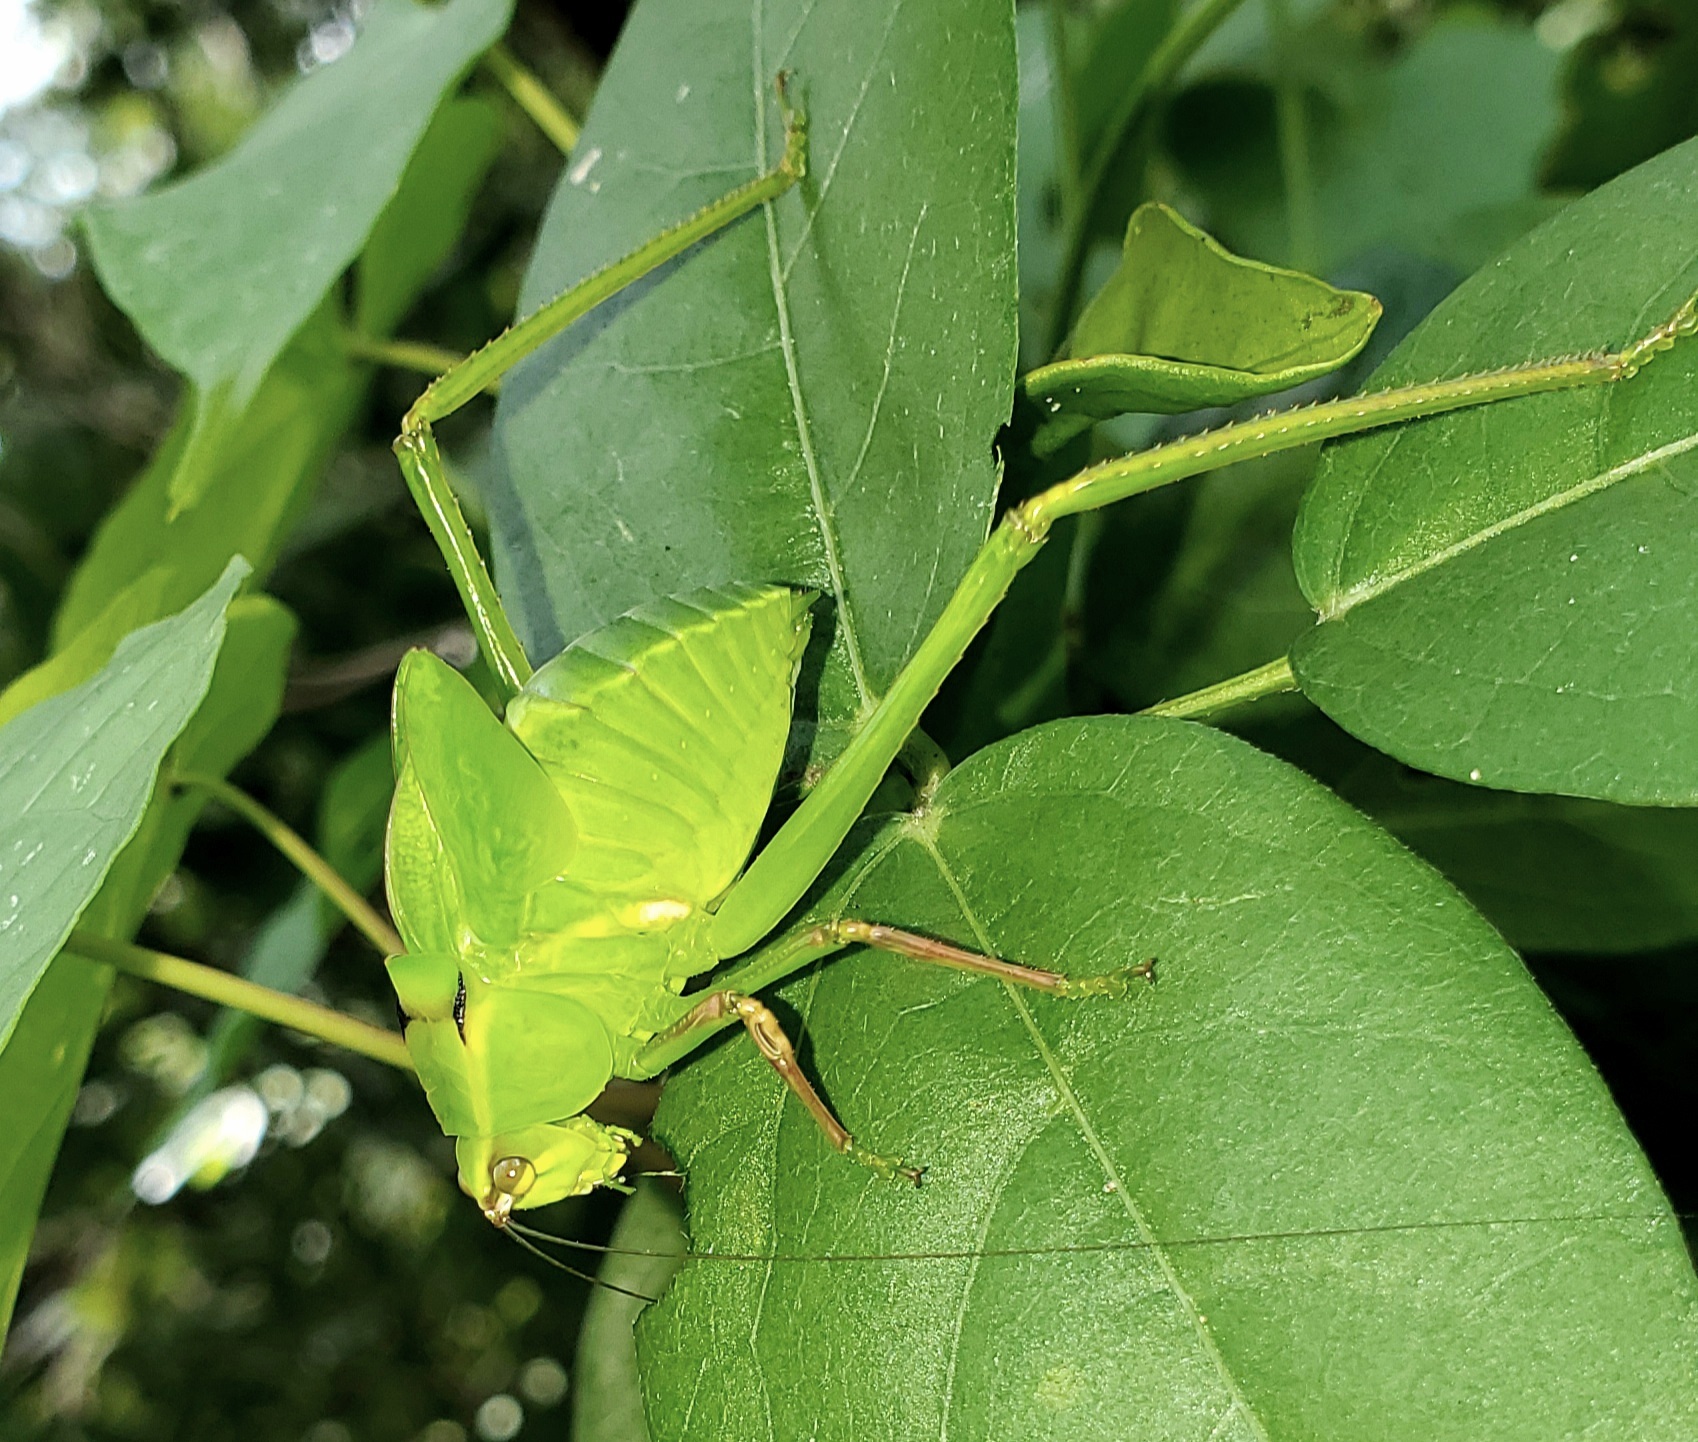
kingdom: Animalia
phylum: Arthropoda
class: Insecta
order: Orthoptera
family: Tettigoniidae
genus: Stilpnochlora
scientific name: Stilpnochlora couloniana
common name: Giant katydid
